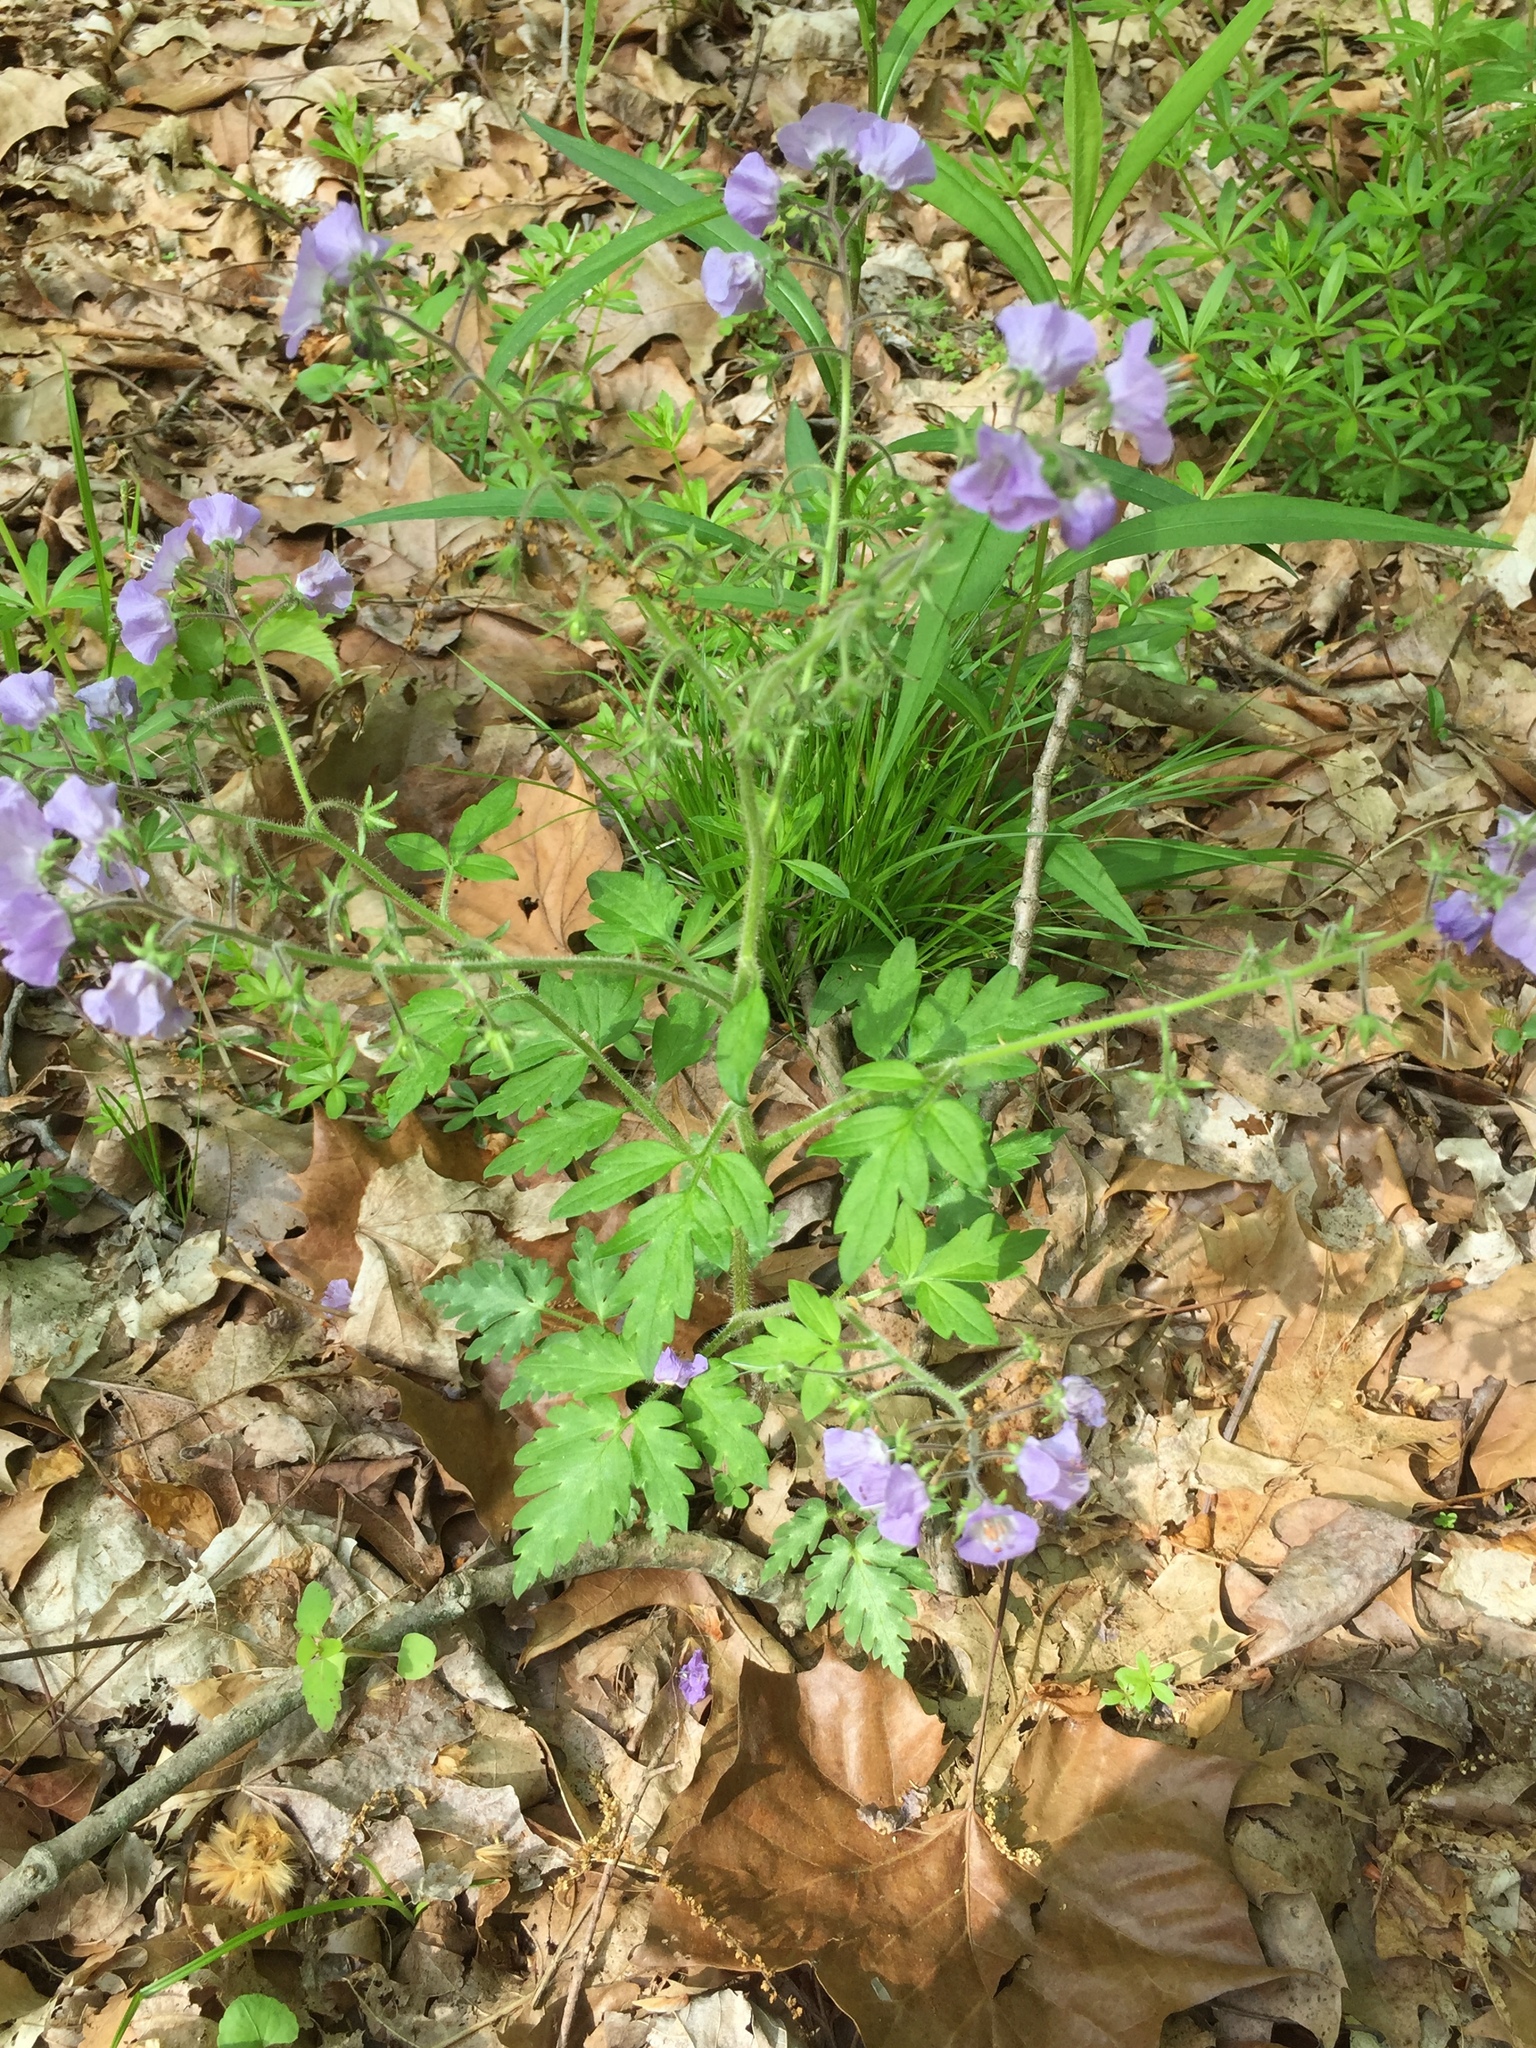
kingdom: Plantae
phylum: Tracheophyta
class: Magnoliopsida
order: Boraginales
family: Hydrophyllaceae
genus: Phacelia
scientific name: Phacelia bipinnatifida
